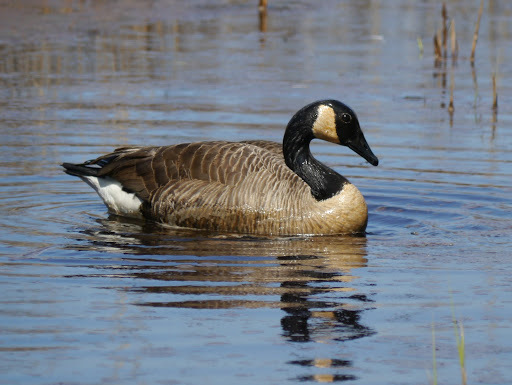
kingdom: Animalia
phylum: Chordata
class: Aves
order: Anseriformes
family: Anatidae
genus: Branta
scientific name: Branta canadensis
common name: Canada goose
